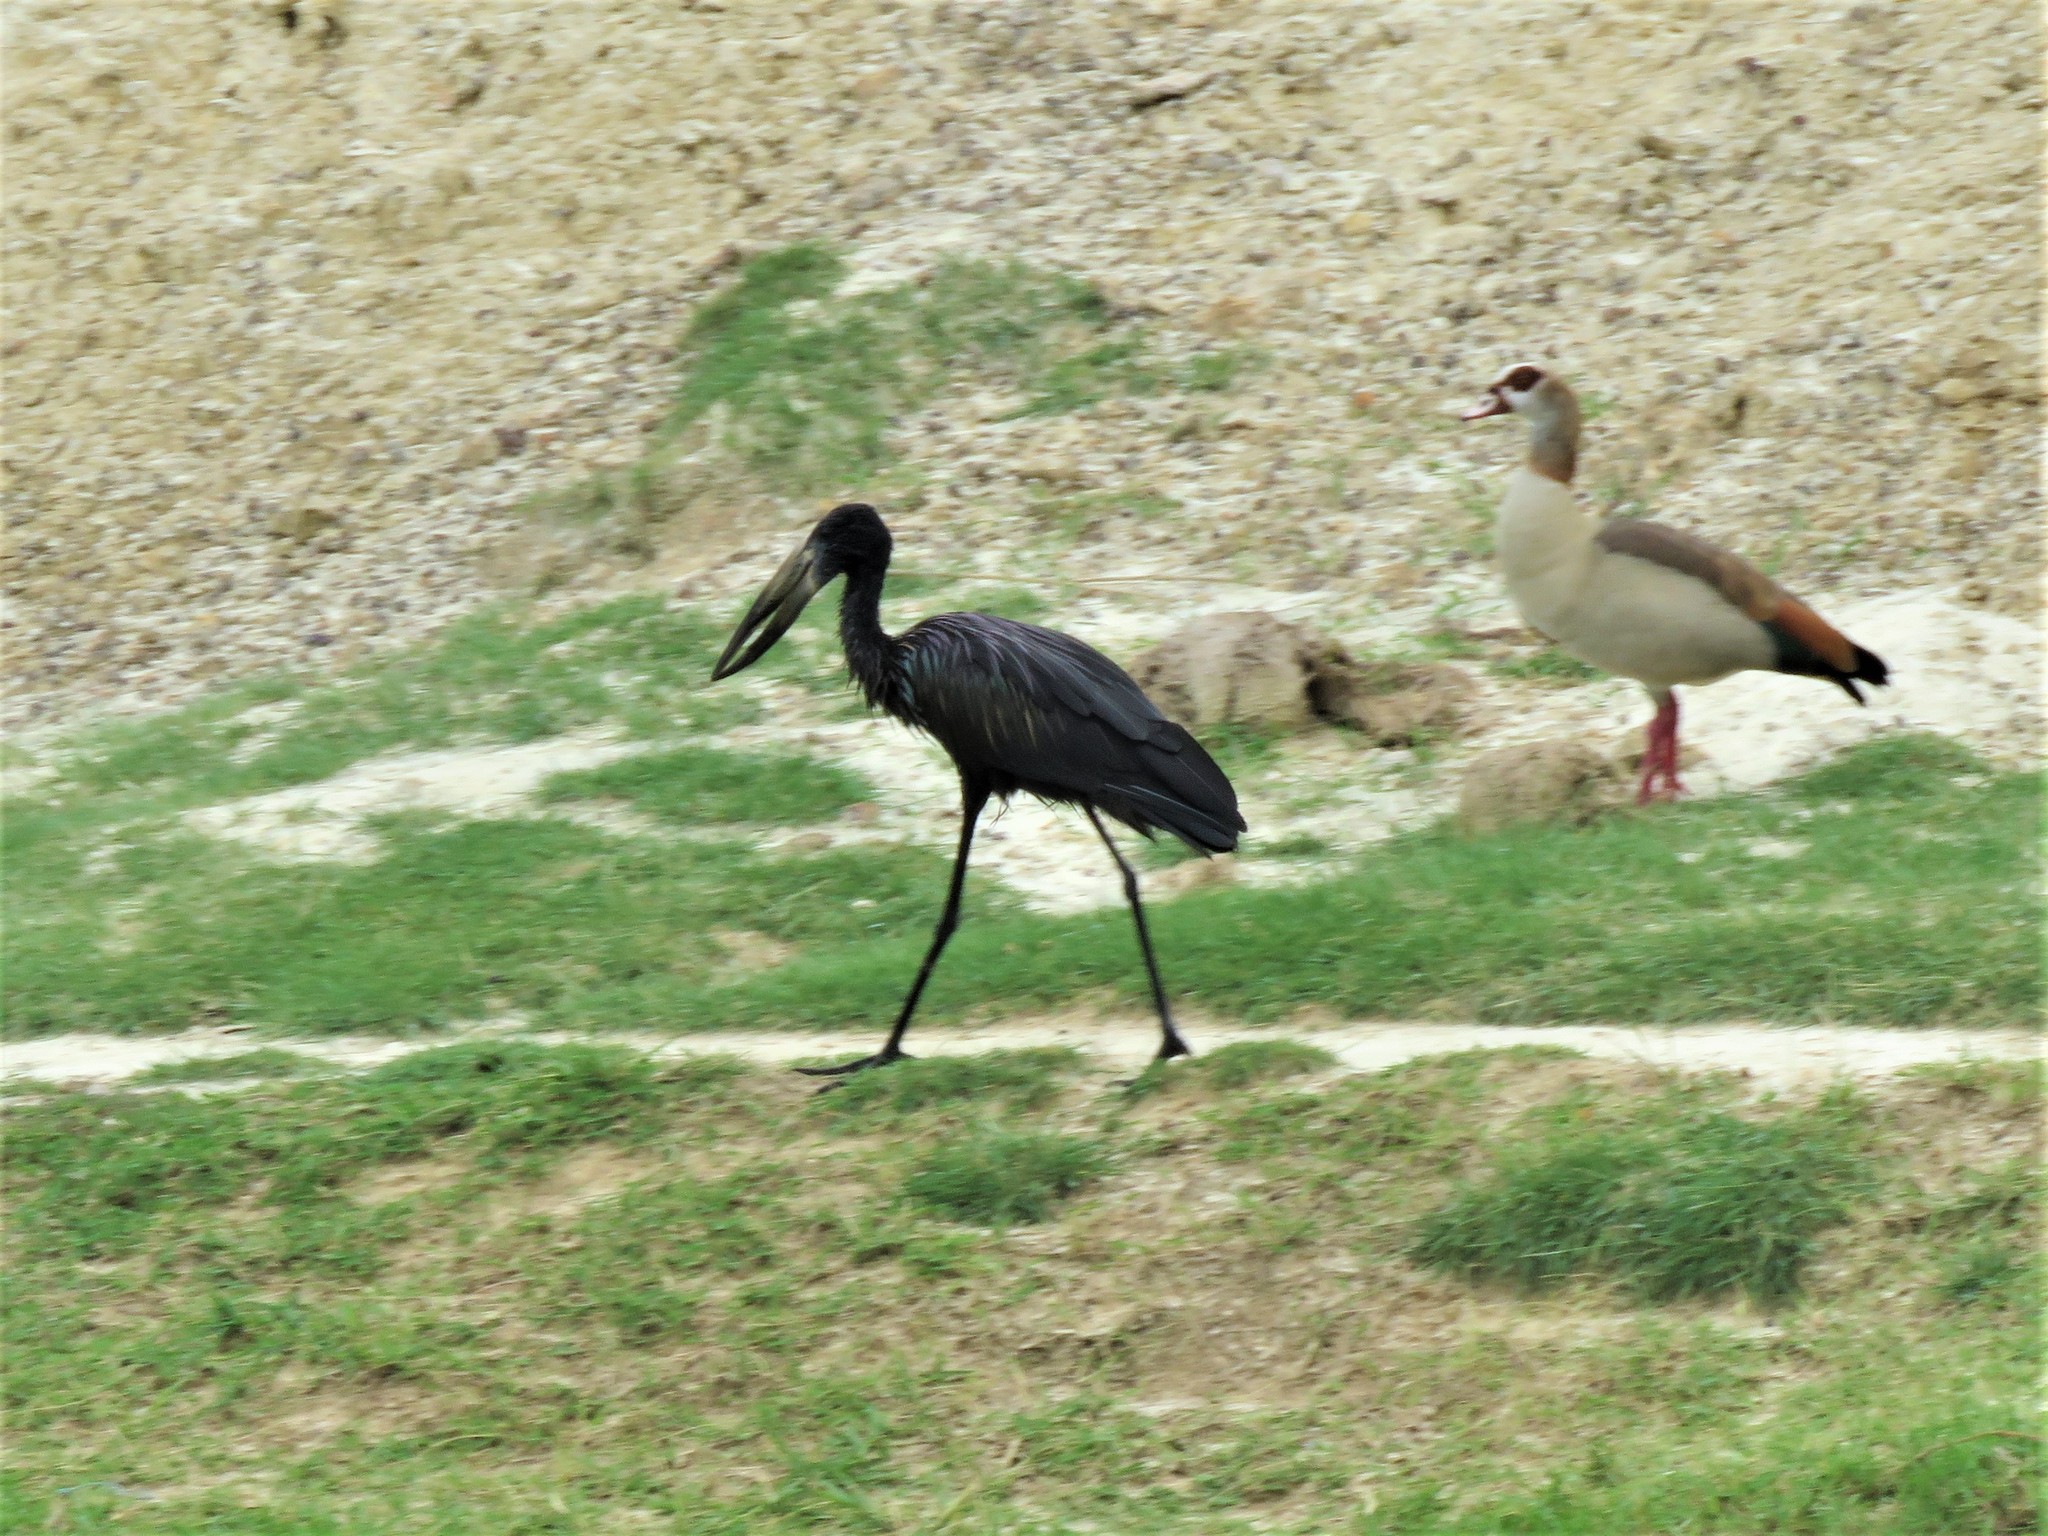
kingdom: Animalia
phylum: Chordata
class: Aves
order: Ciconiiformes
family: Ciconiidae
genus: Anastomus
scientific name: Anastomus lamelligerus
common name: African openbill
